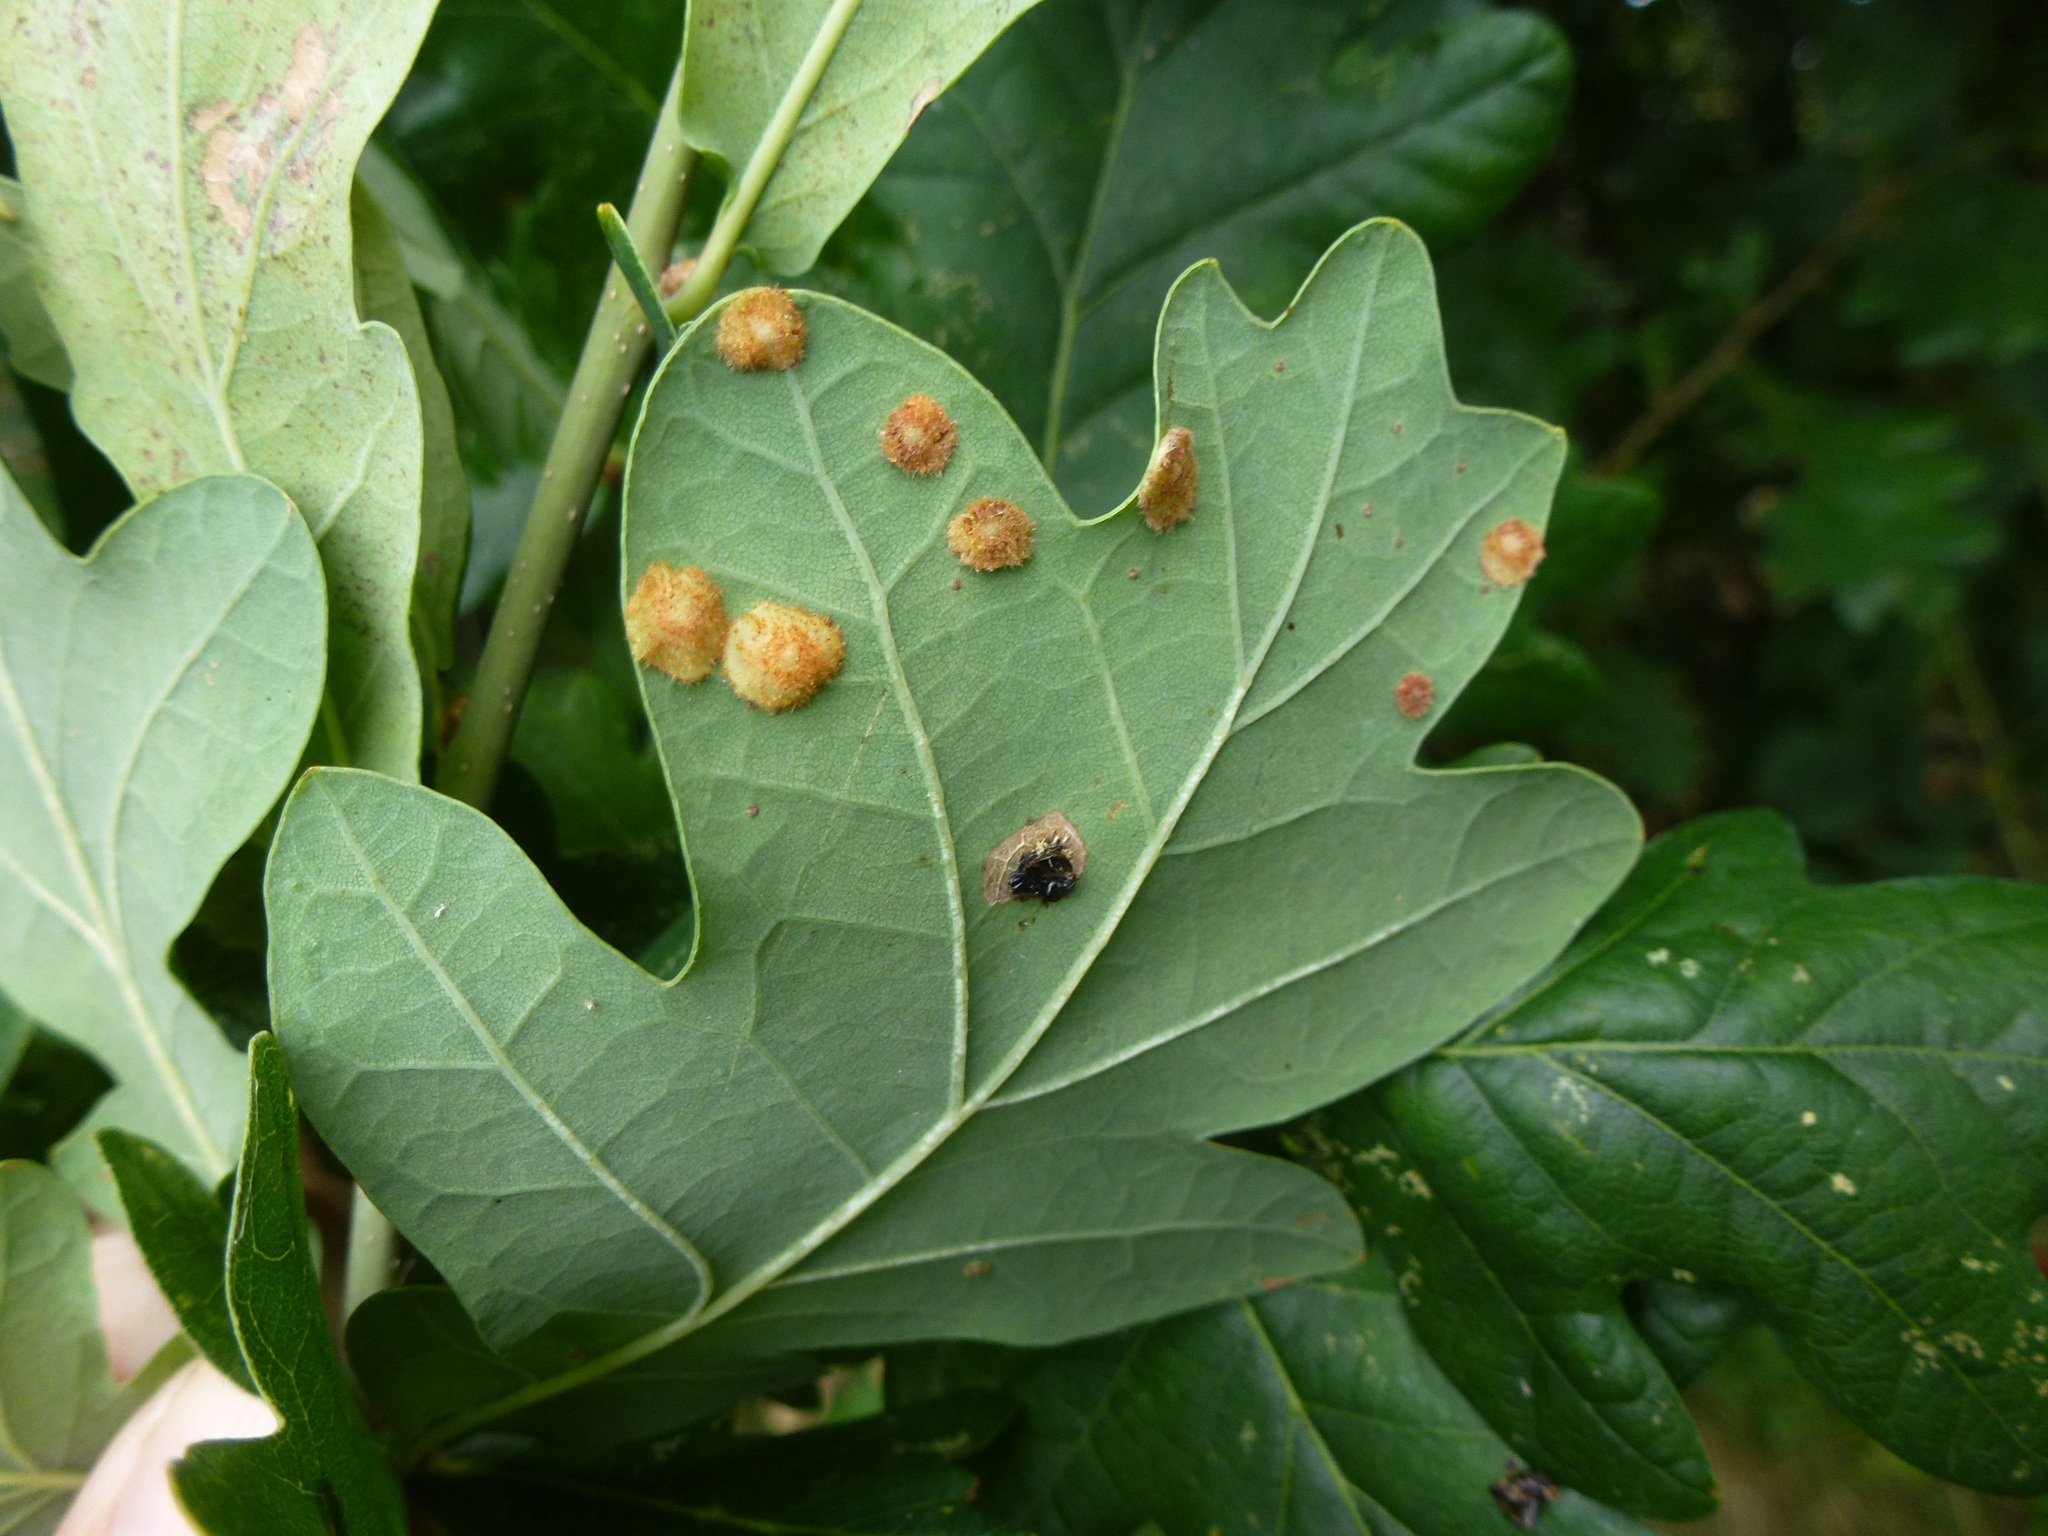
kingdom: Animalia
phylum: Arthropoda
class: Insecta
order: Hymenoptera
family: Cynipidae
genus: Neuroterus
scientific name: Neuroterus quercusbaccarum
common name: Common spangle gall
